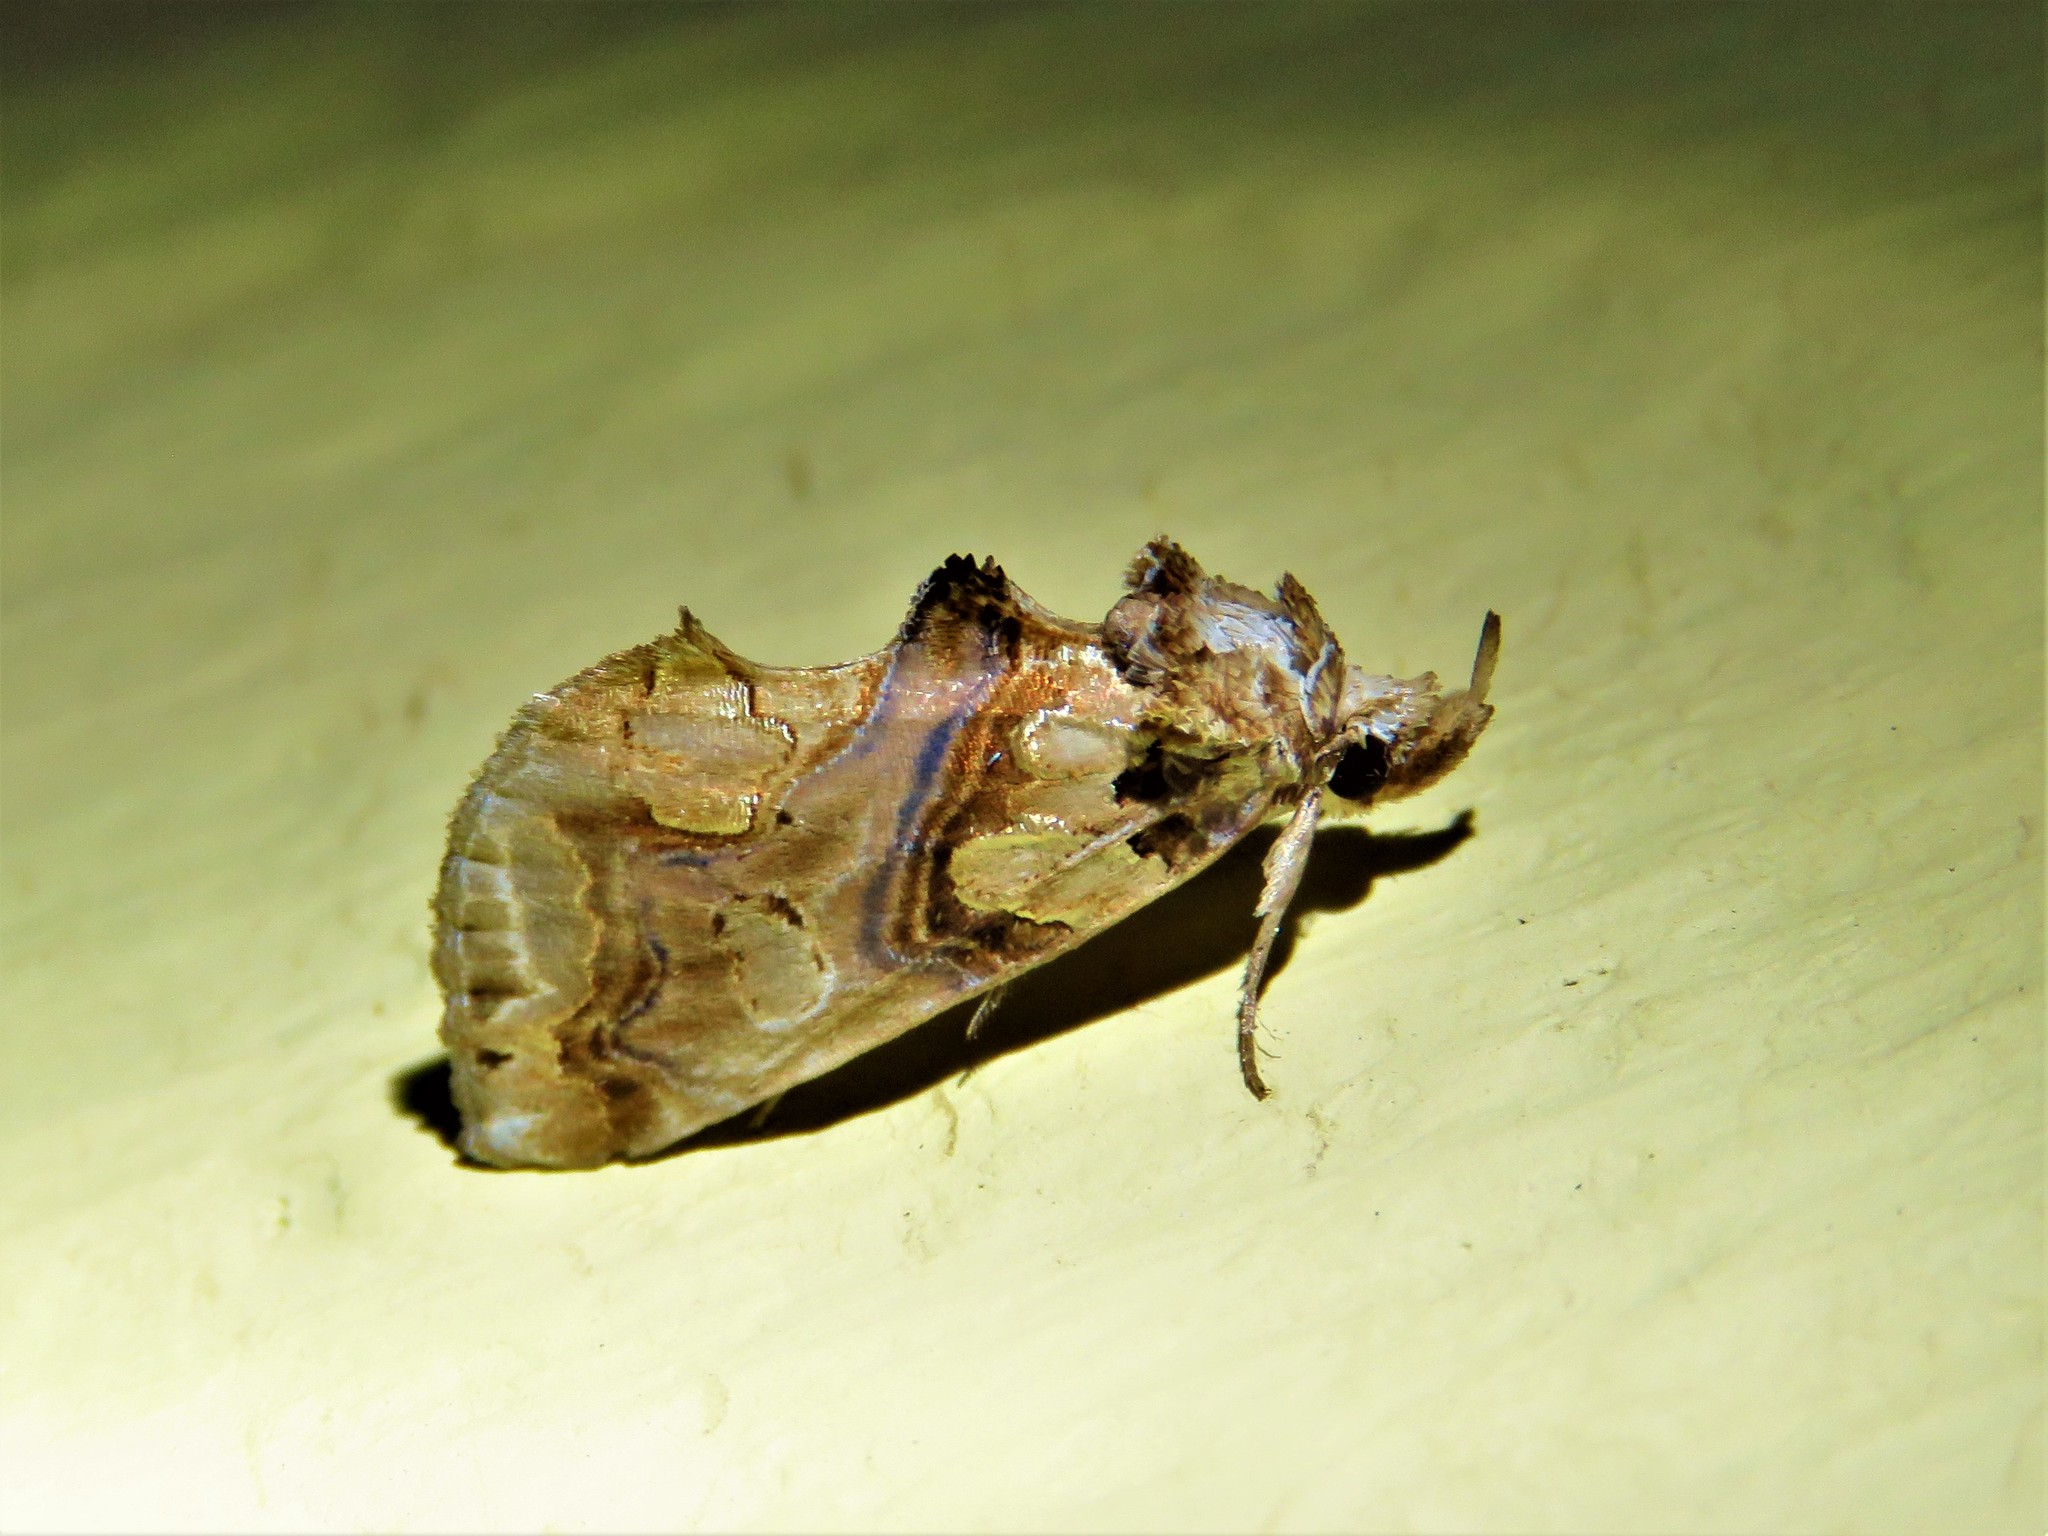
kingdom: Animalia
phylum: Arthropoda
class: Insecta
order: Lepidoptera
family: Erebidae
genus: Plusiodonta
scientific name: Plusiodonta compressipalpis
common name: Moonseed moth
